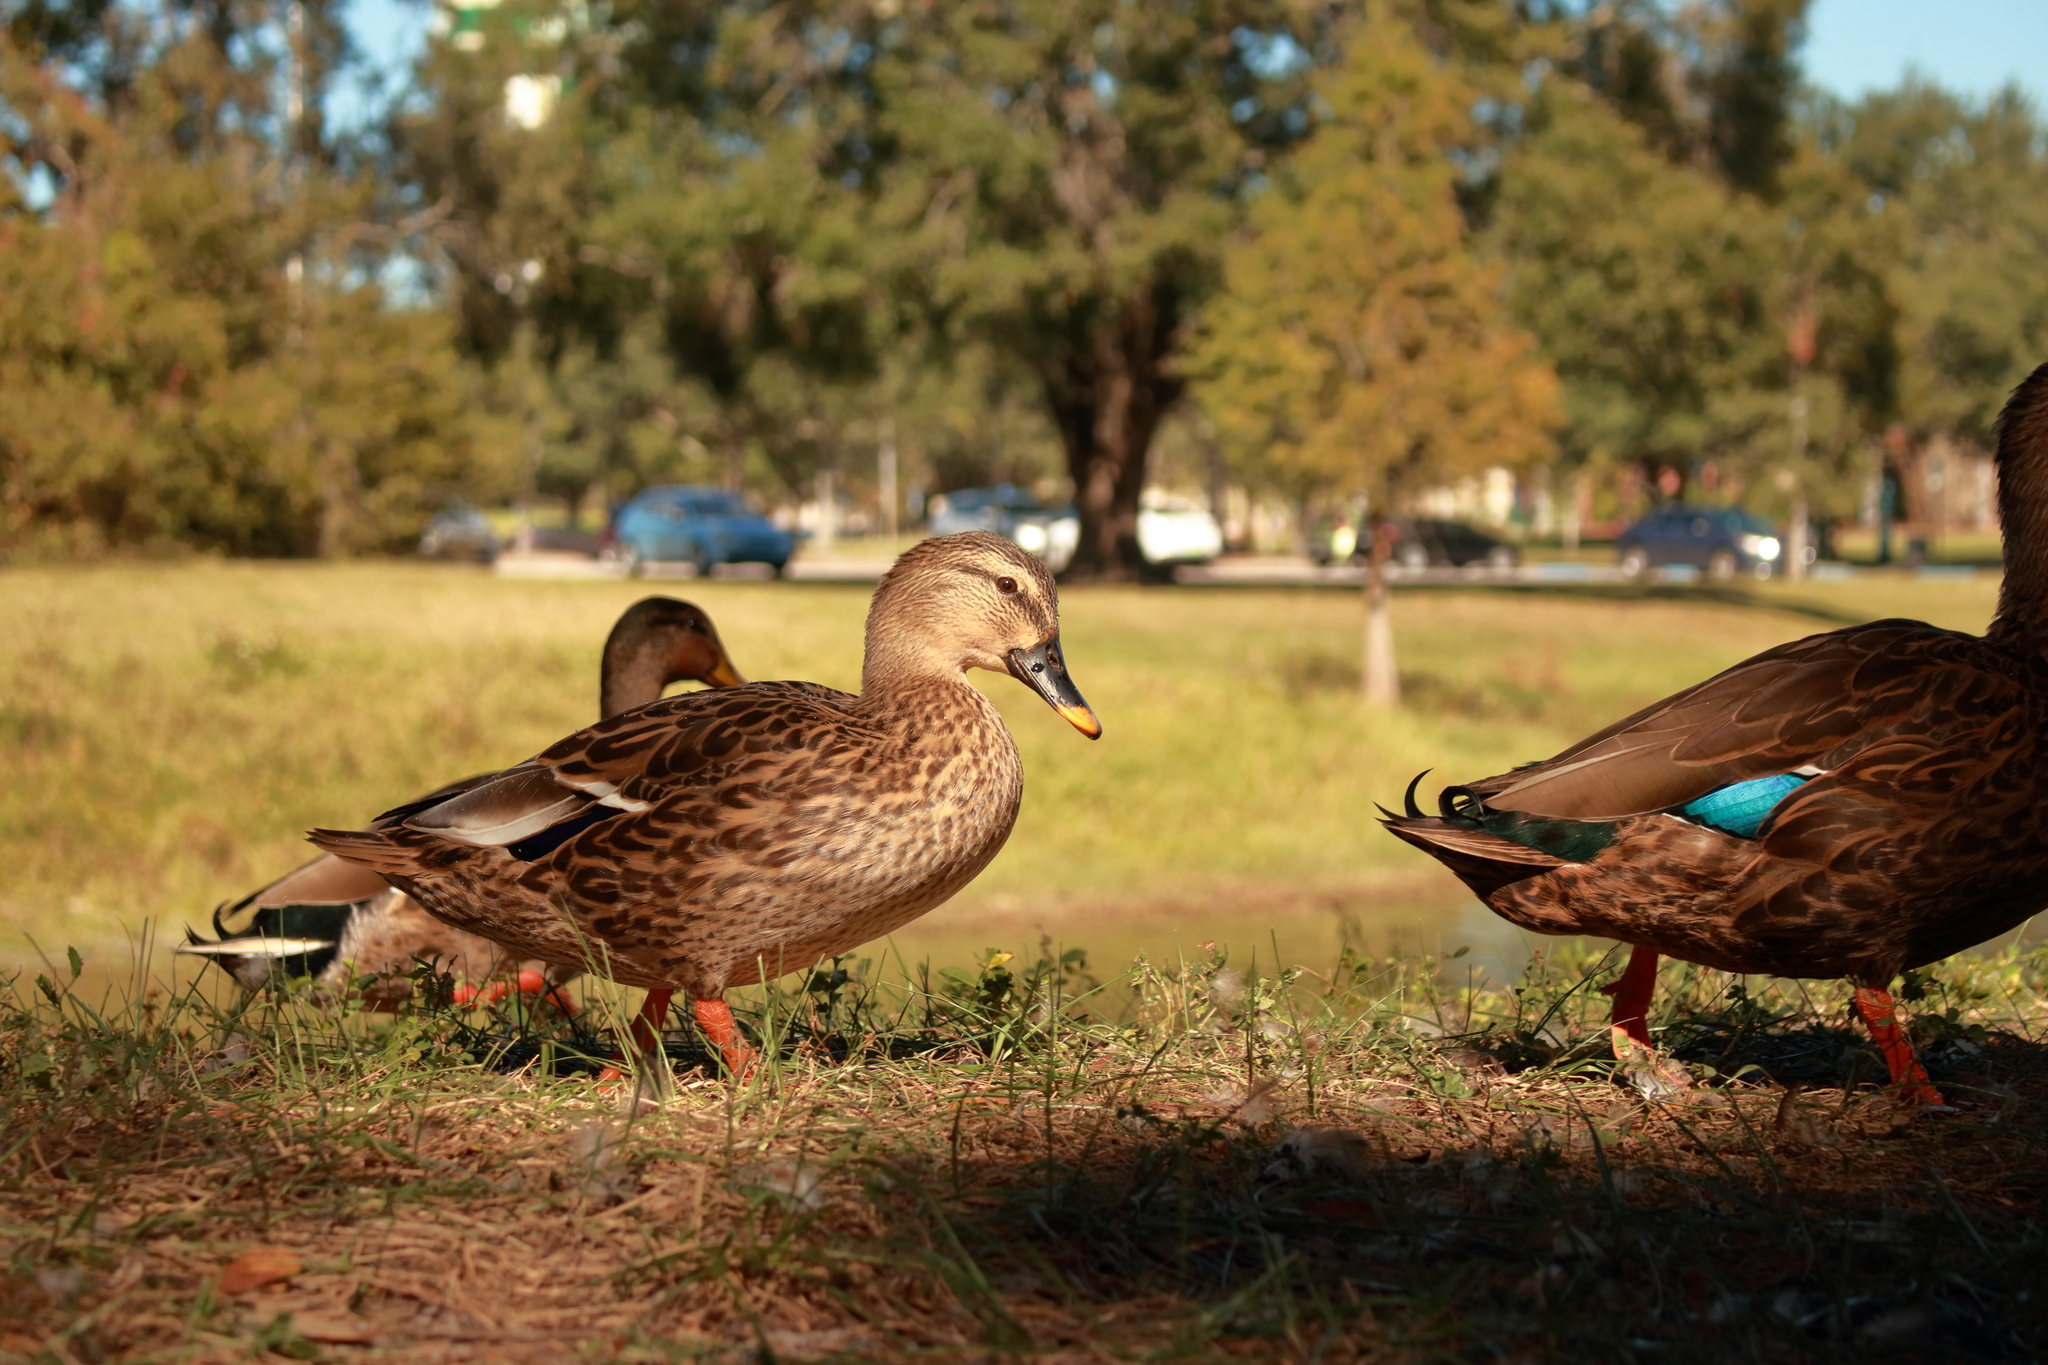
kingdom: Animalia
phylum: Chordata
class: Aves
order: Anseriformes
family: Anatidae
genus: Anas
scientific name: Anas
